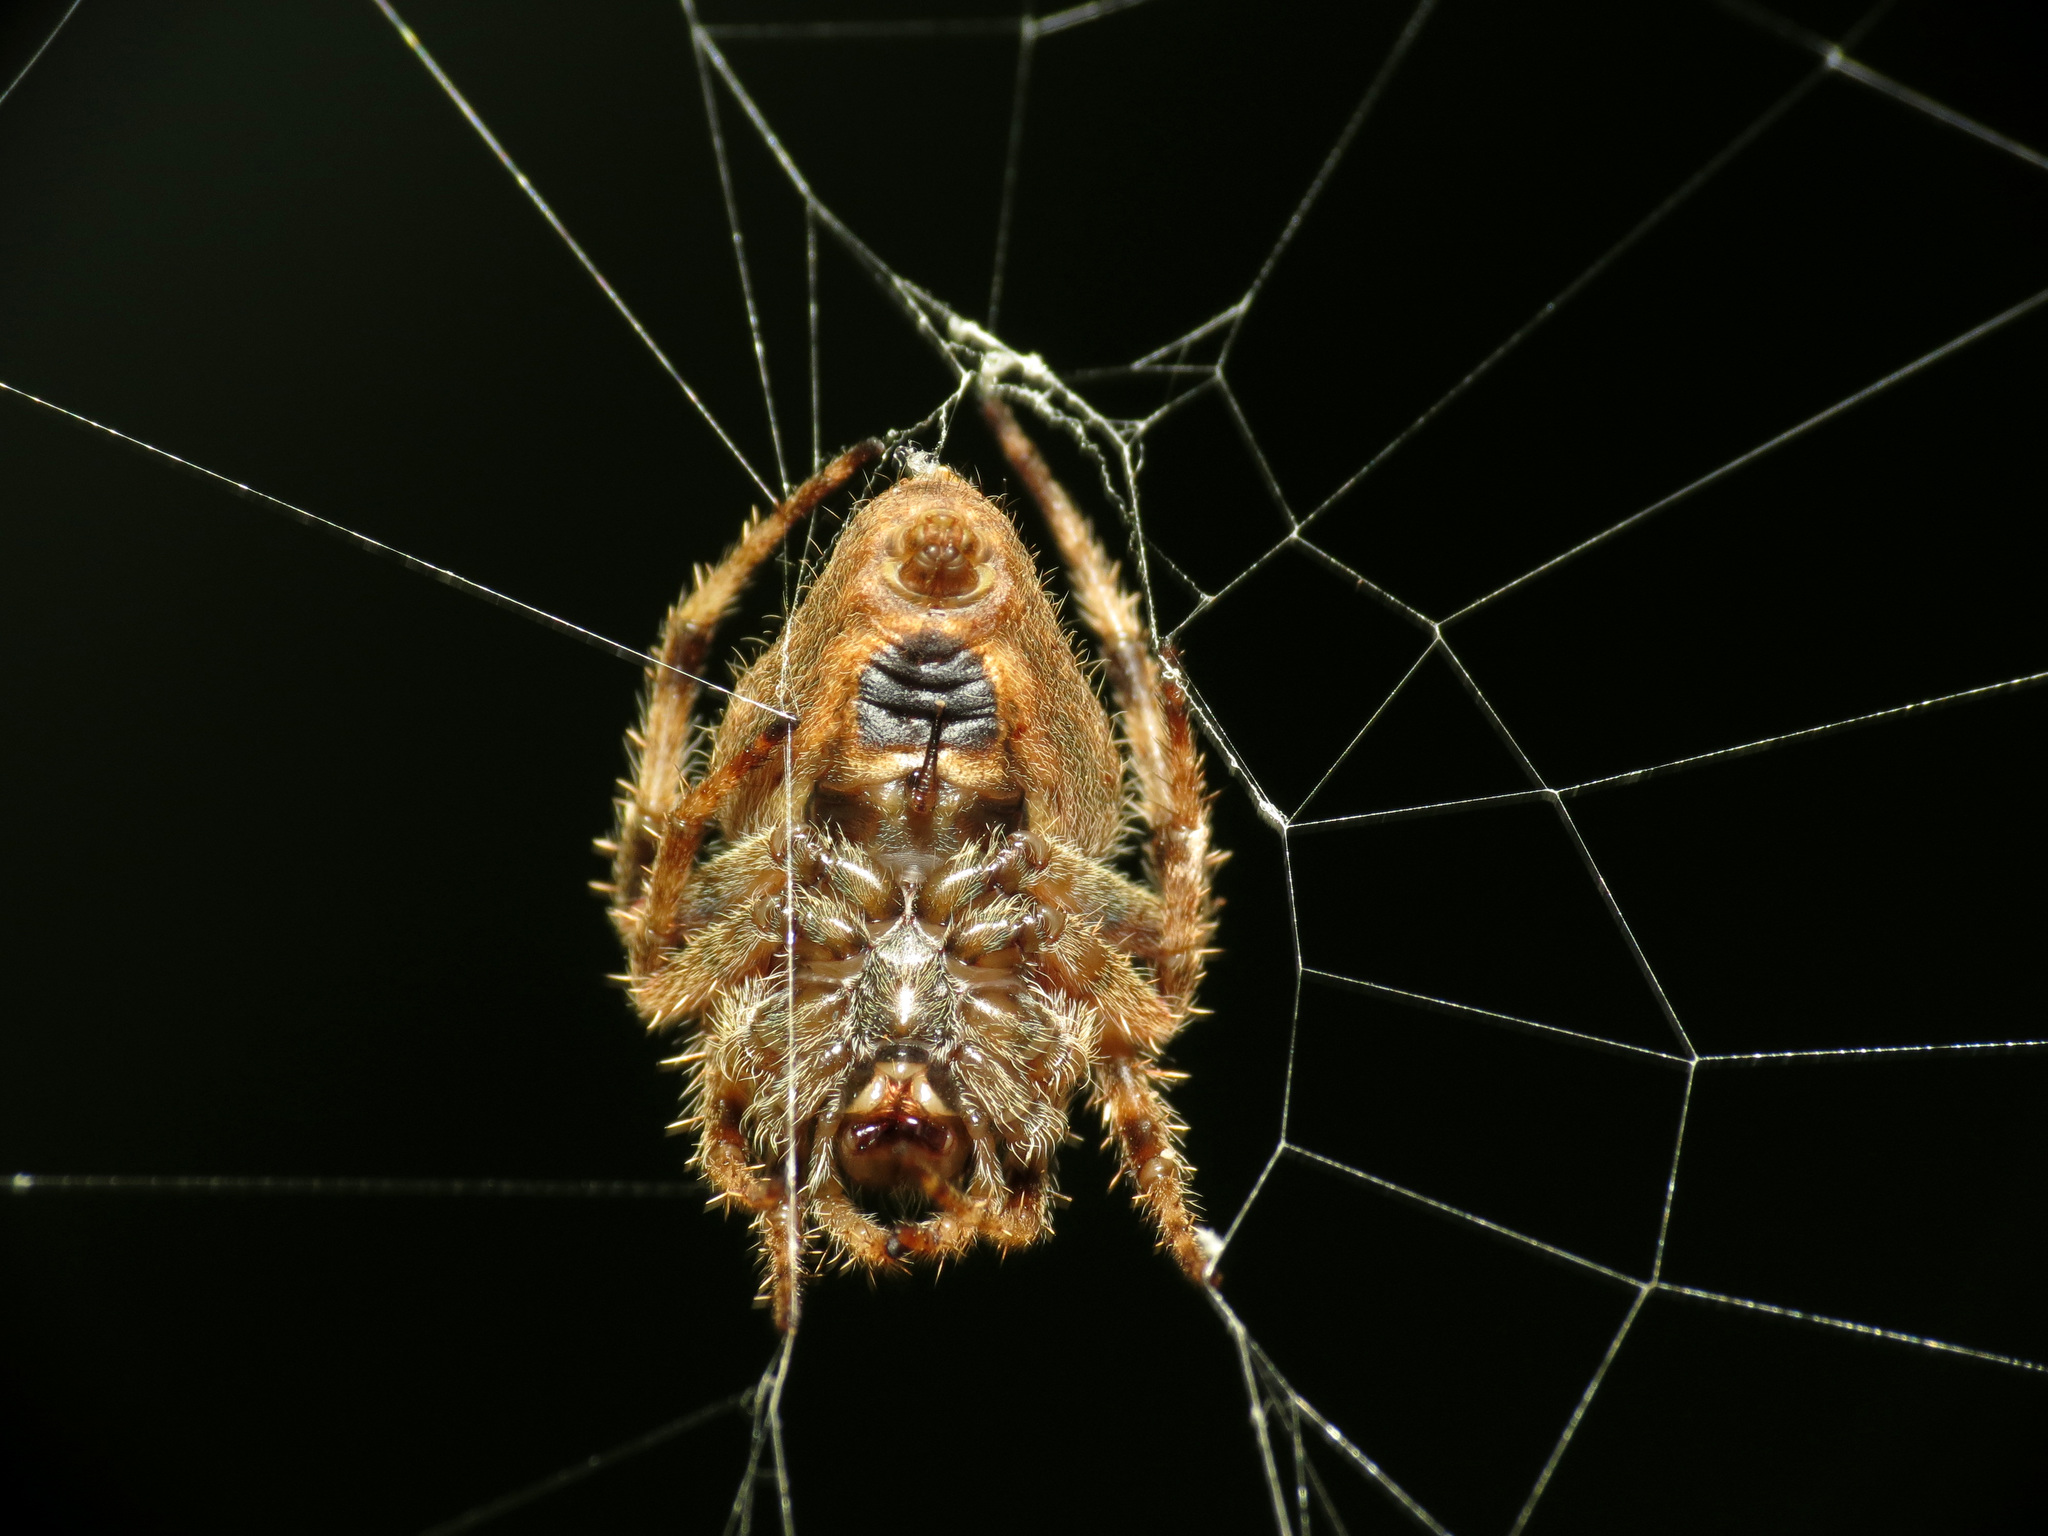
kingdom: Animalia
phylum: Arthropoda
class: Arachnida
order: Araneae
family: Araneidae
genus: Eriophora
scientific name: Eriophora edax
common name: Orb weavers
